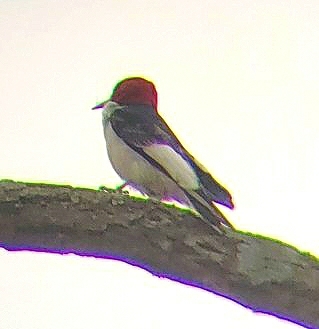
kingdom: Animalia
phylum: Chordata
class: Aves
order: Piciformes
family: Picidae
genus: Melanerpes
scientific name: Melanerpes erythrocephalus
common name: Red-headed woodpecker
